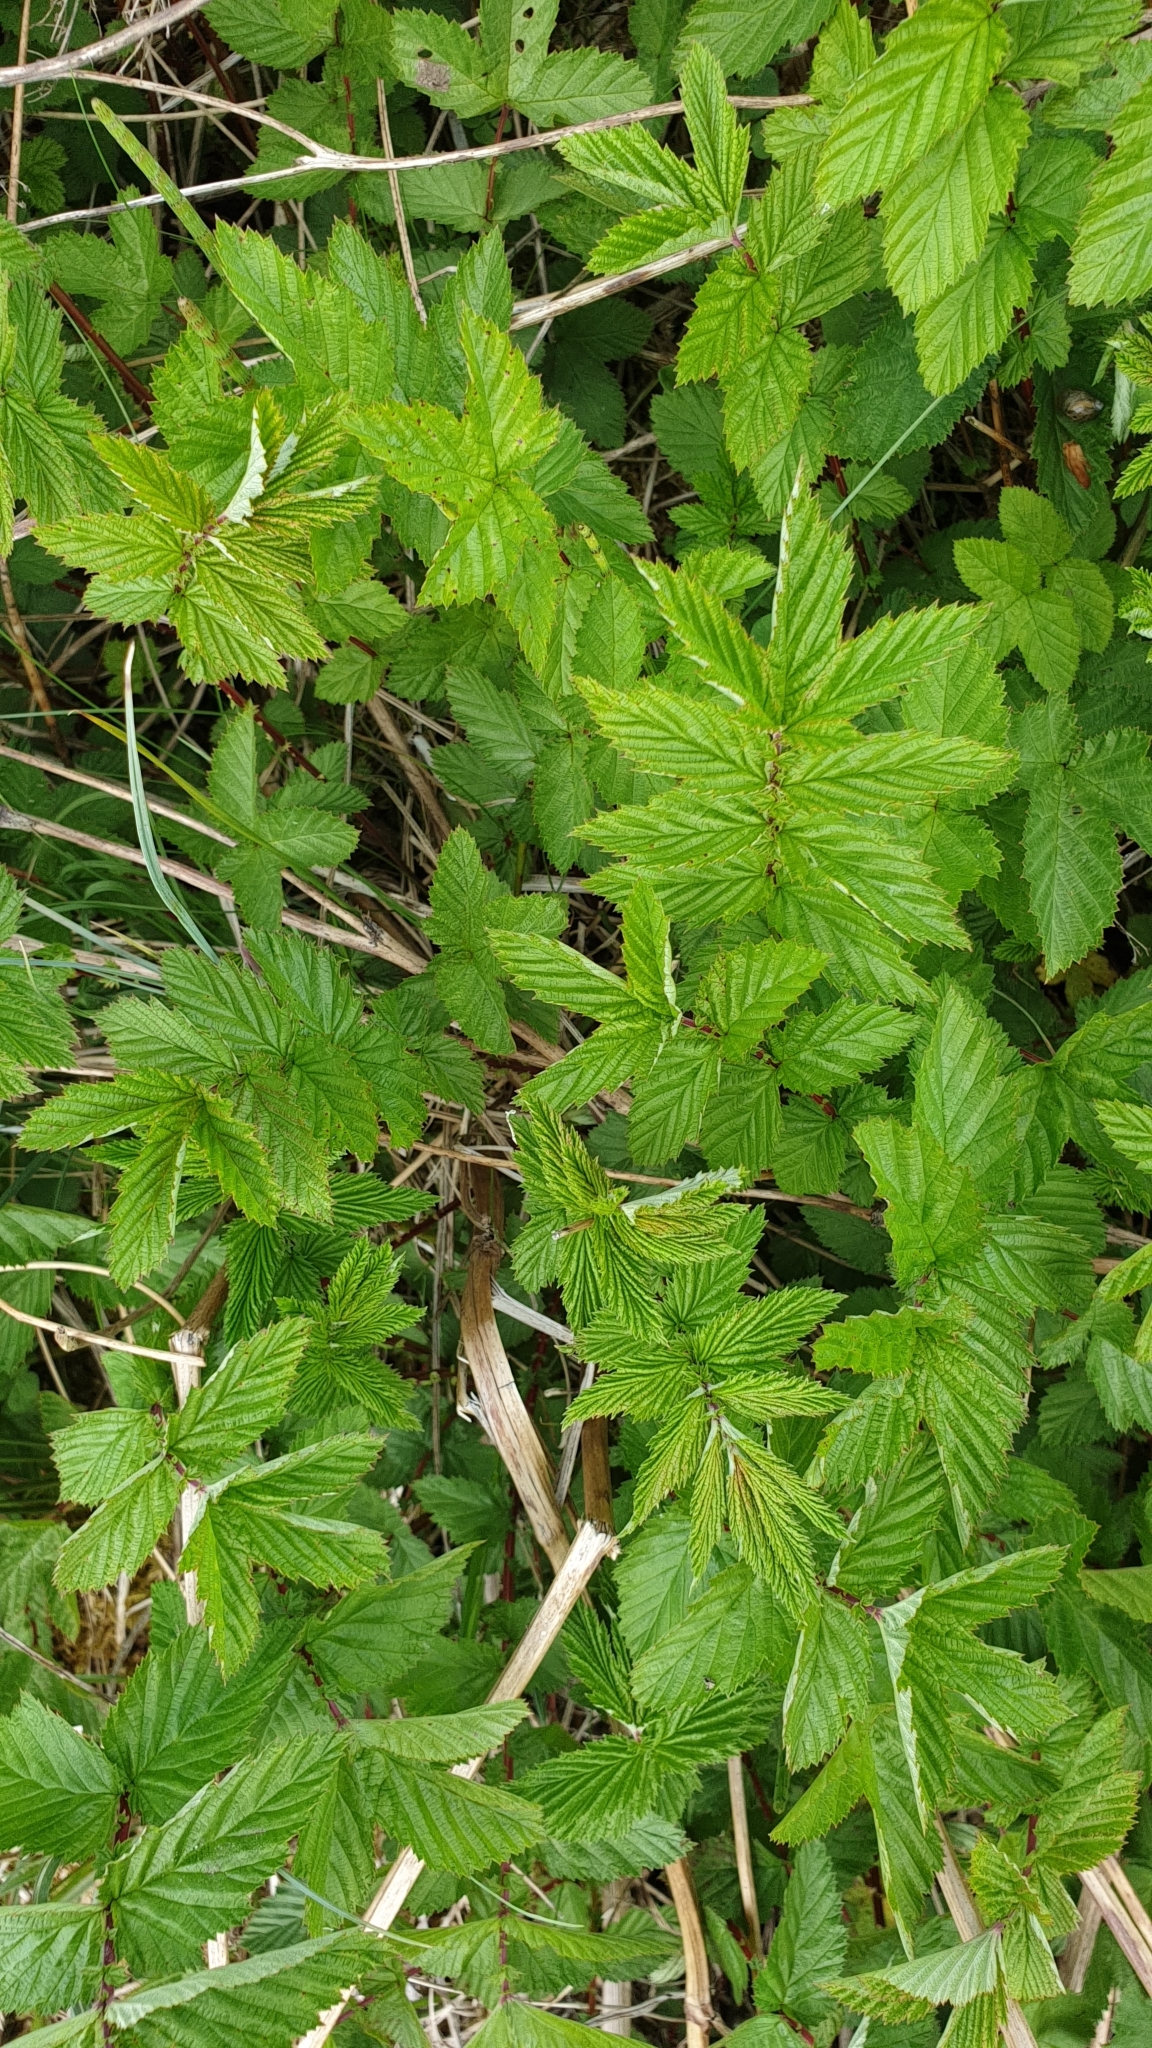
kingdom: Plantae
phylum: Tracheophyta
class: Magnoliopsida
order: Rosales
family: Rosaceae
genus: Filipendula
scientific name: Filipendula ulmaria
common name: Meadowsweet
